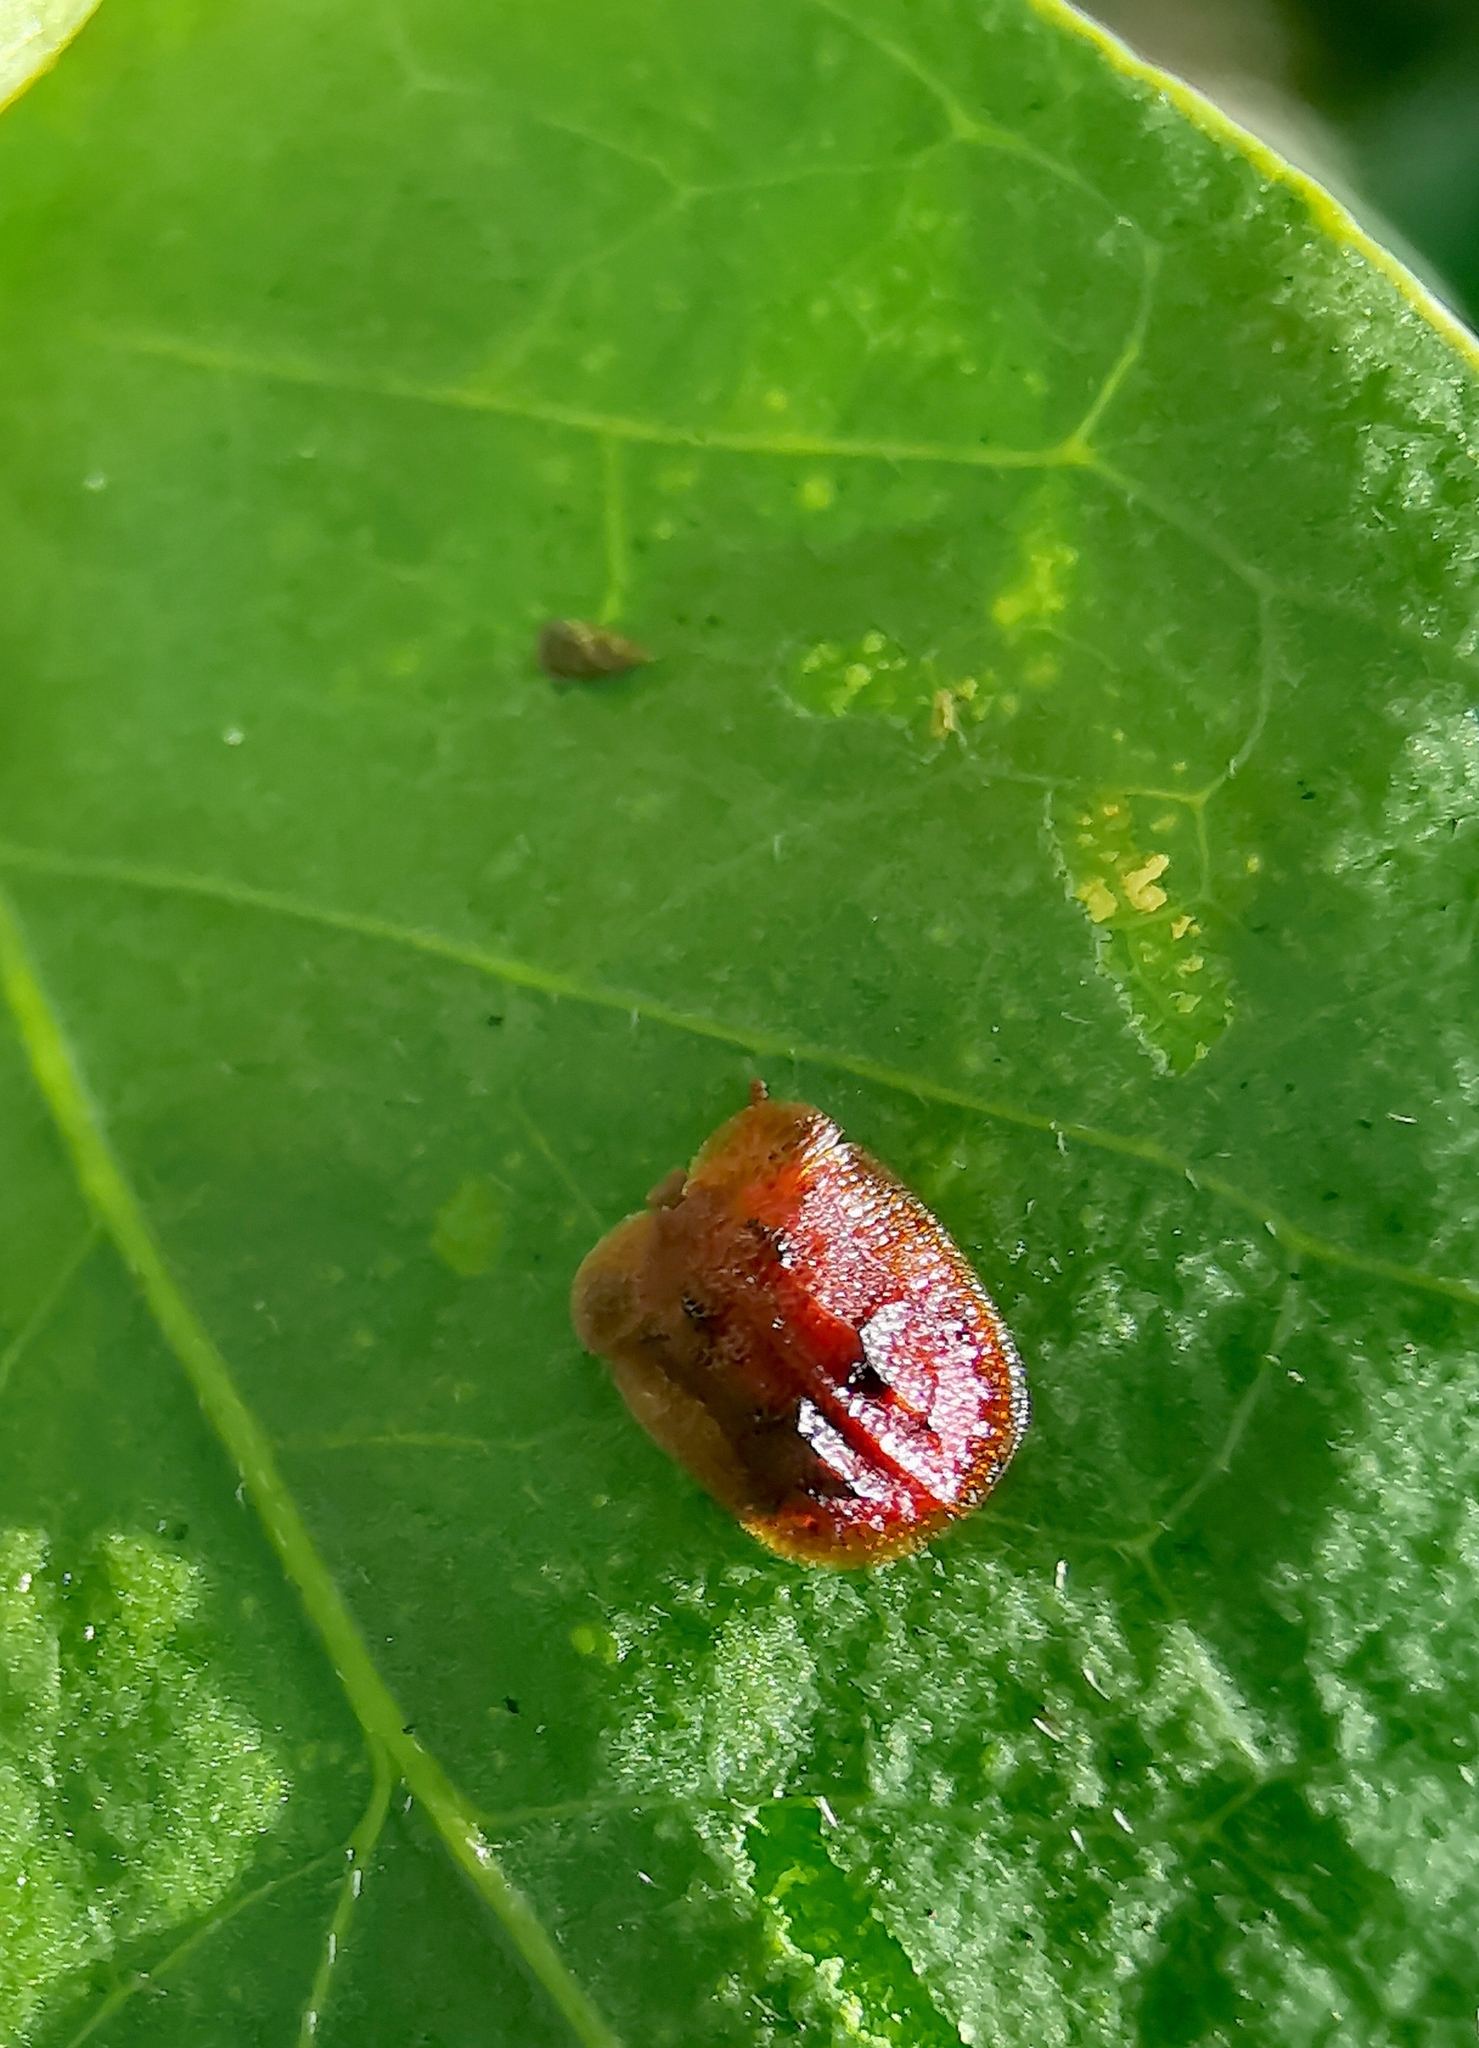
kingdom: Animalia
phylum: Arthropoda
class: Insecta
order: Coleoptera
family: Chrysomelidae
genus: Notosacantha
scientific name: Notosacantha rufa
